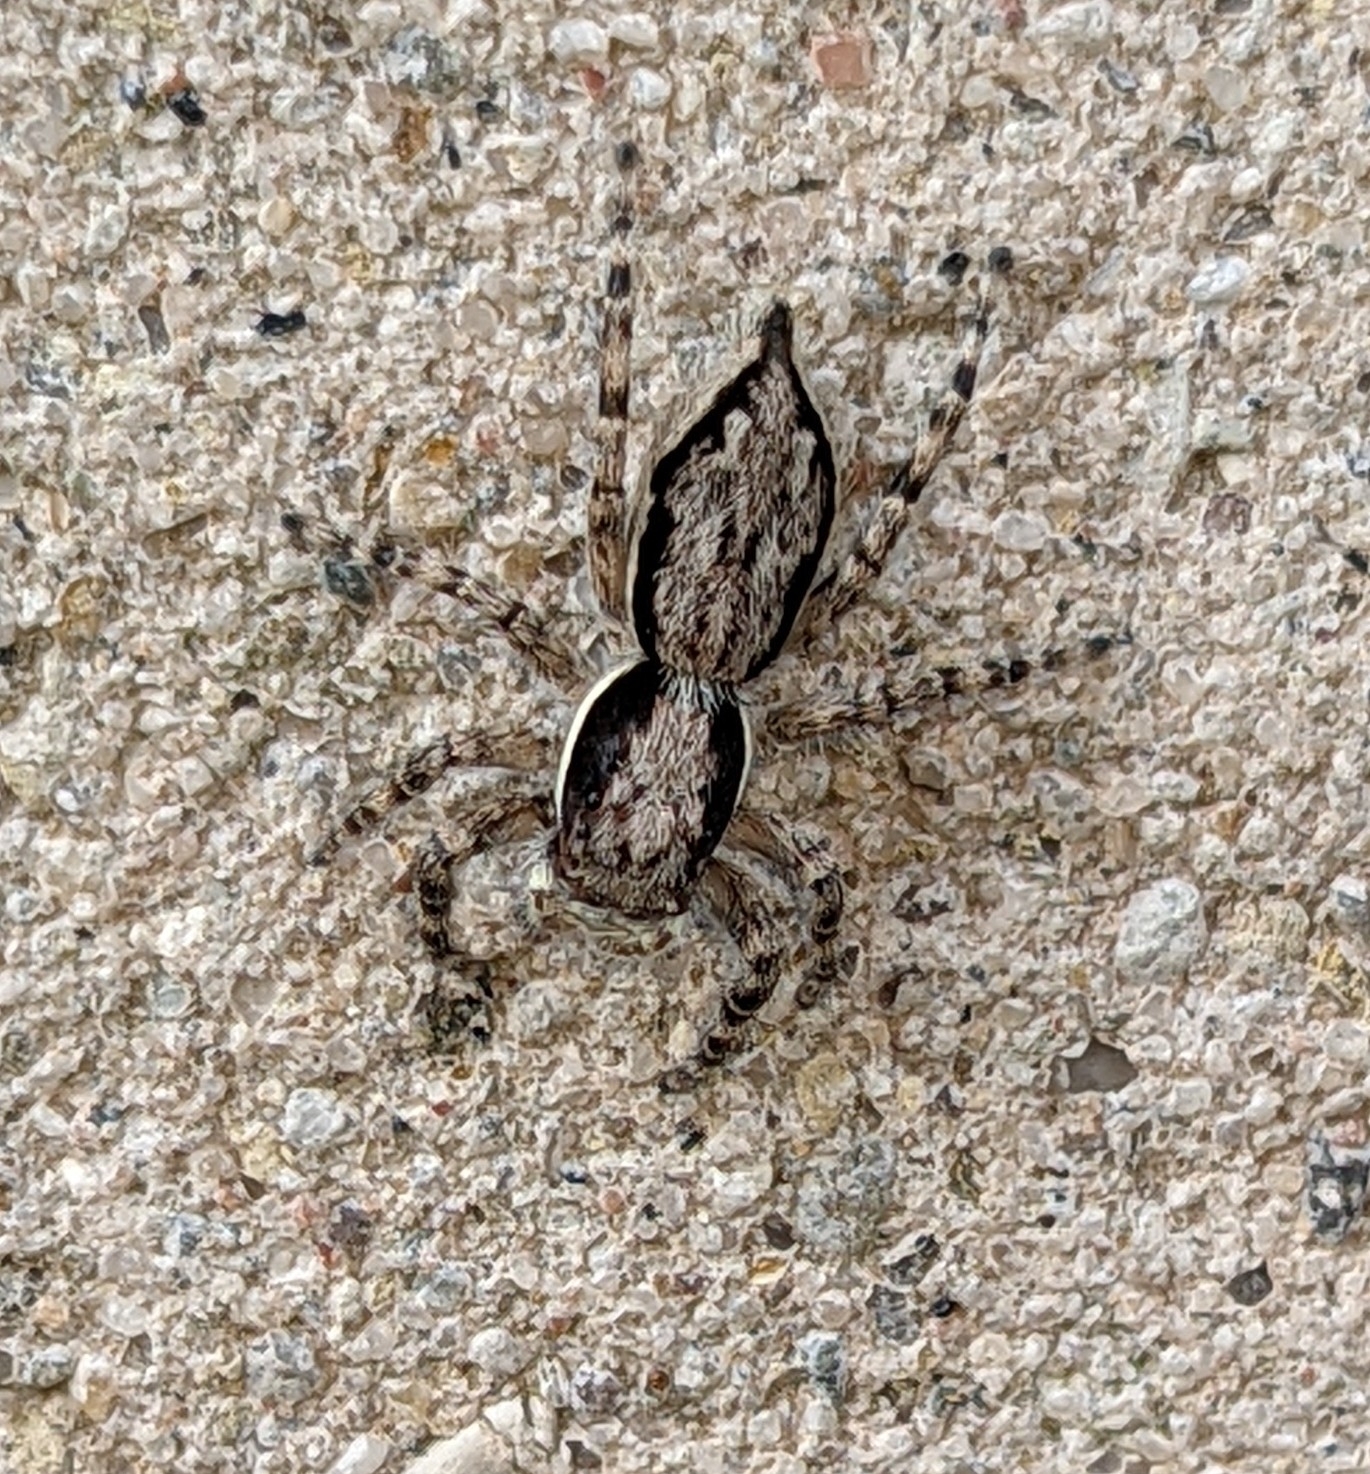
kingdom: Animalia
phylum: Arthropoda
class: Arachnida
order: Araneae
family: Salticidae
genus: Menemerus
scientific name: Menemerus bivittatus
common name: Gray wall jumper
